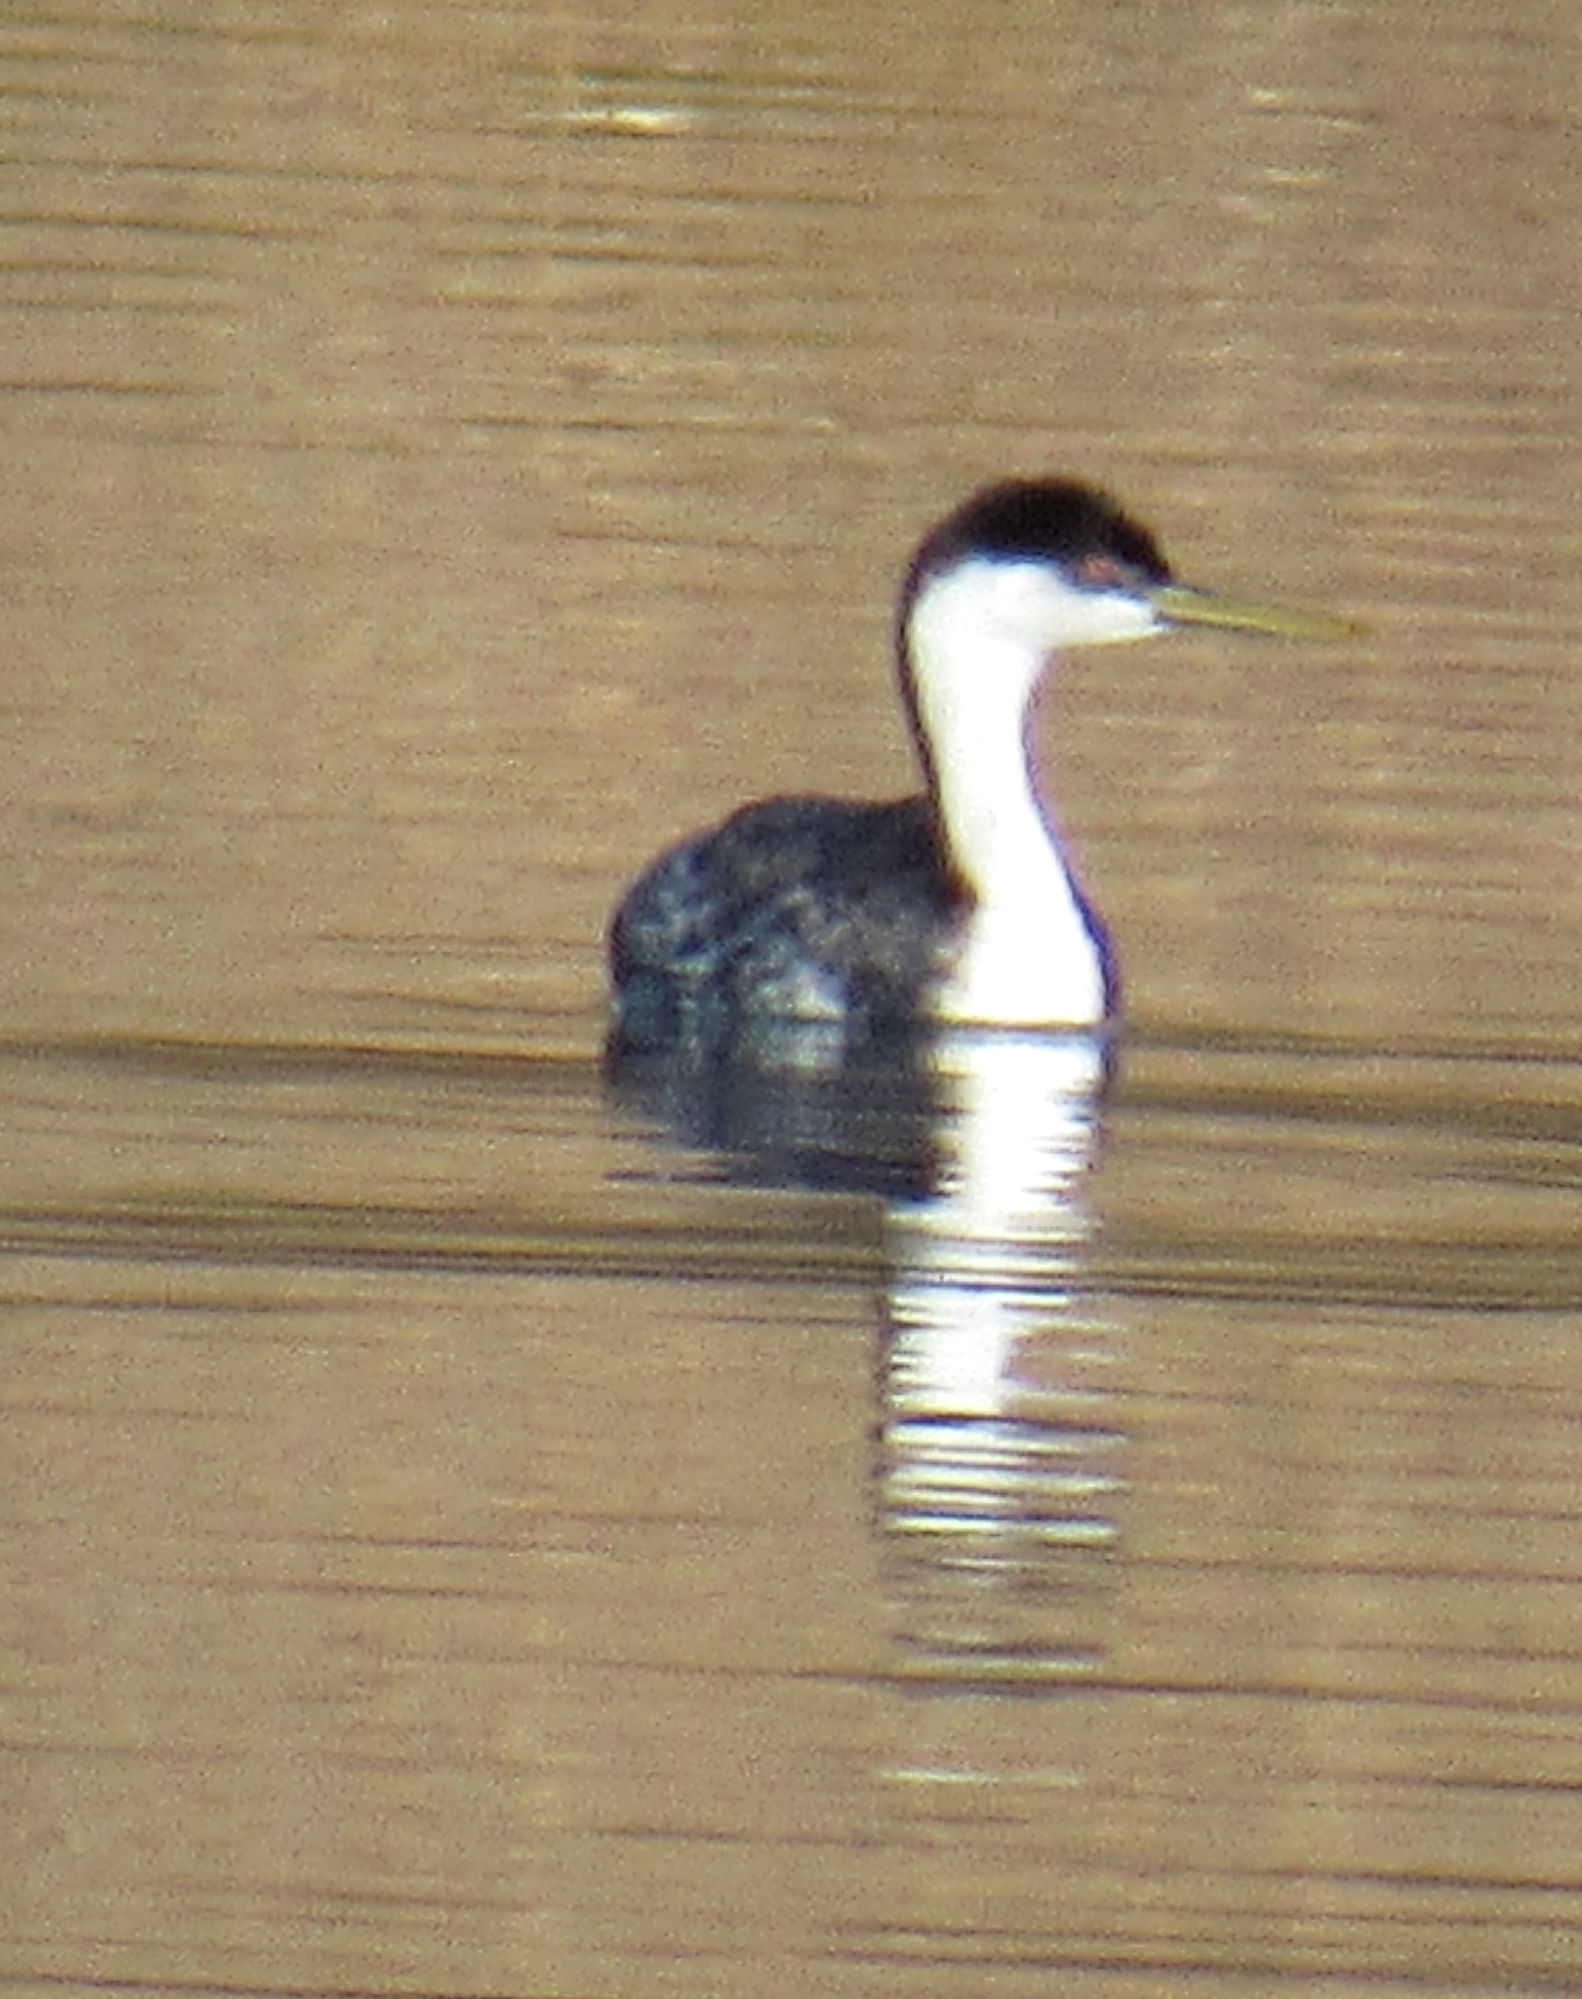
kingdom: Animalia
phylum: Chordata
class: Aves
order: Podicipediformes
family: Podicipedidae
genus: Aechmophorus
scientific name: Aechmophorus occidentalis
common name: Western grebe
